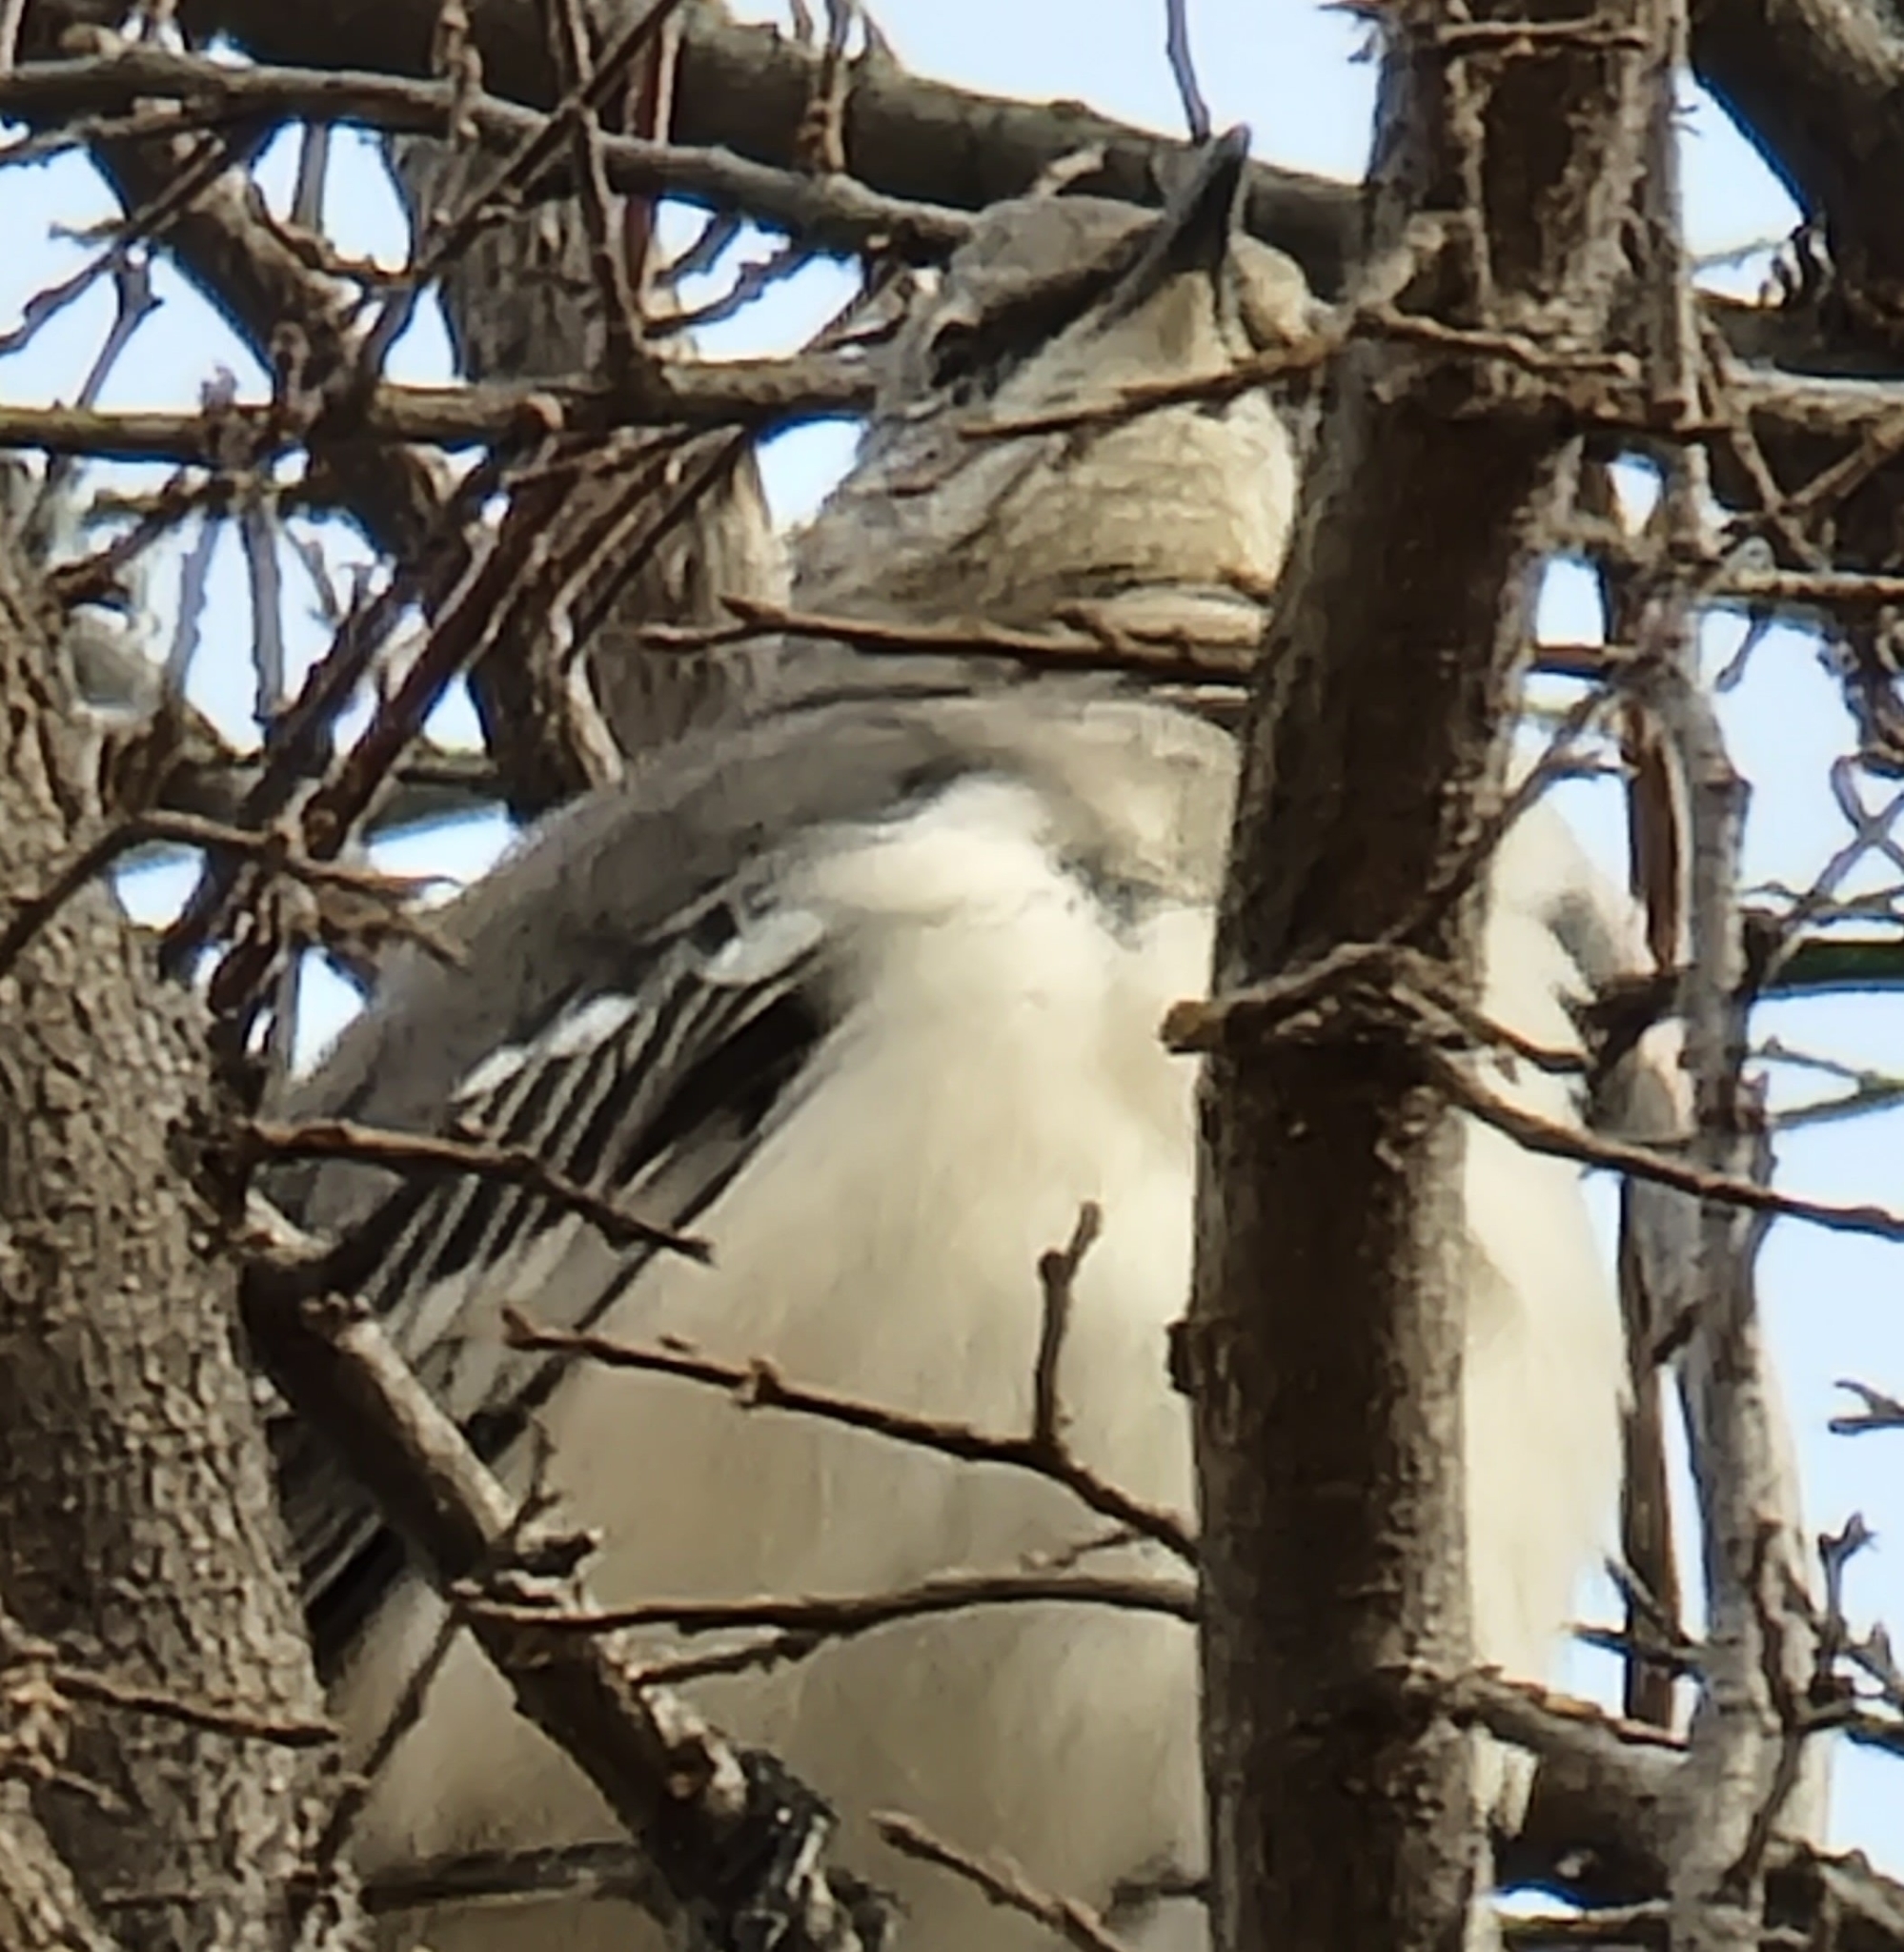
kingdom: Animalia
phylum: Chordata
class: Aves
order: Passeriformes
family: Mimidae
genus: Mimus
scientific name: Mimus polyglottos
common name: Northern mockingbird
